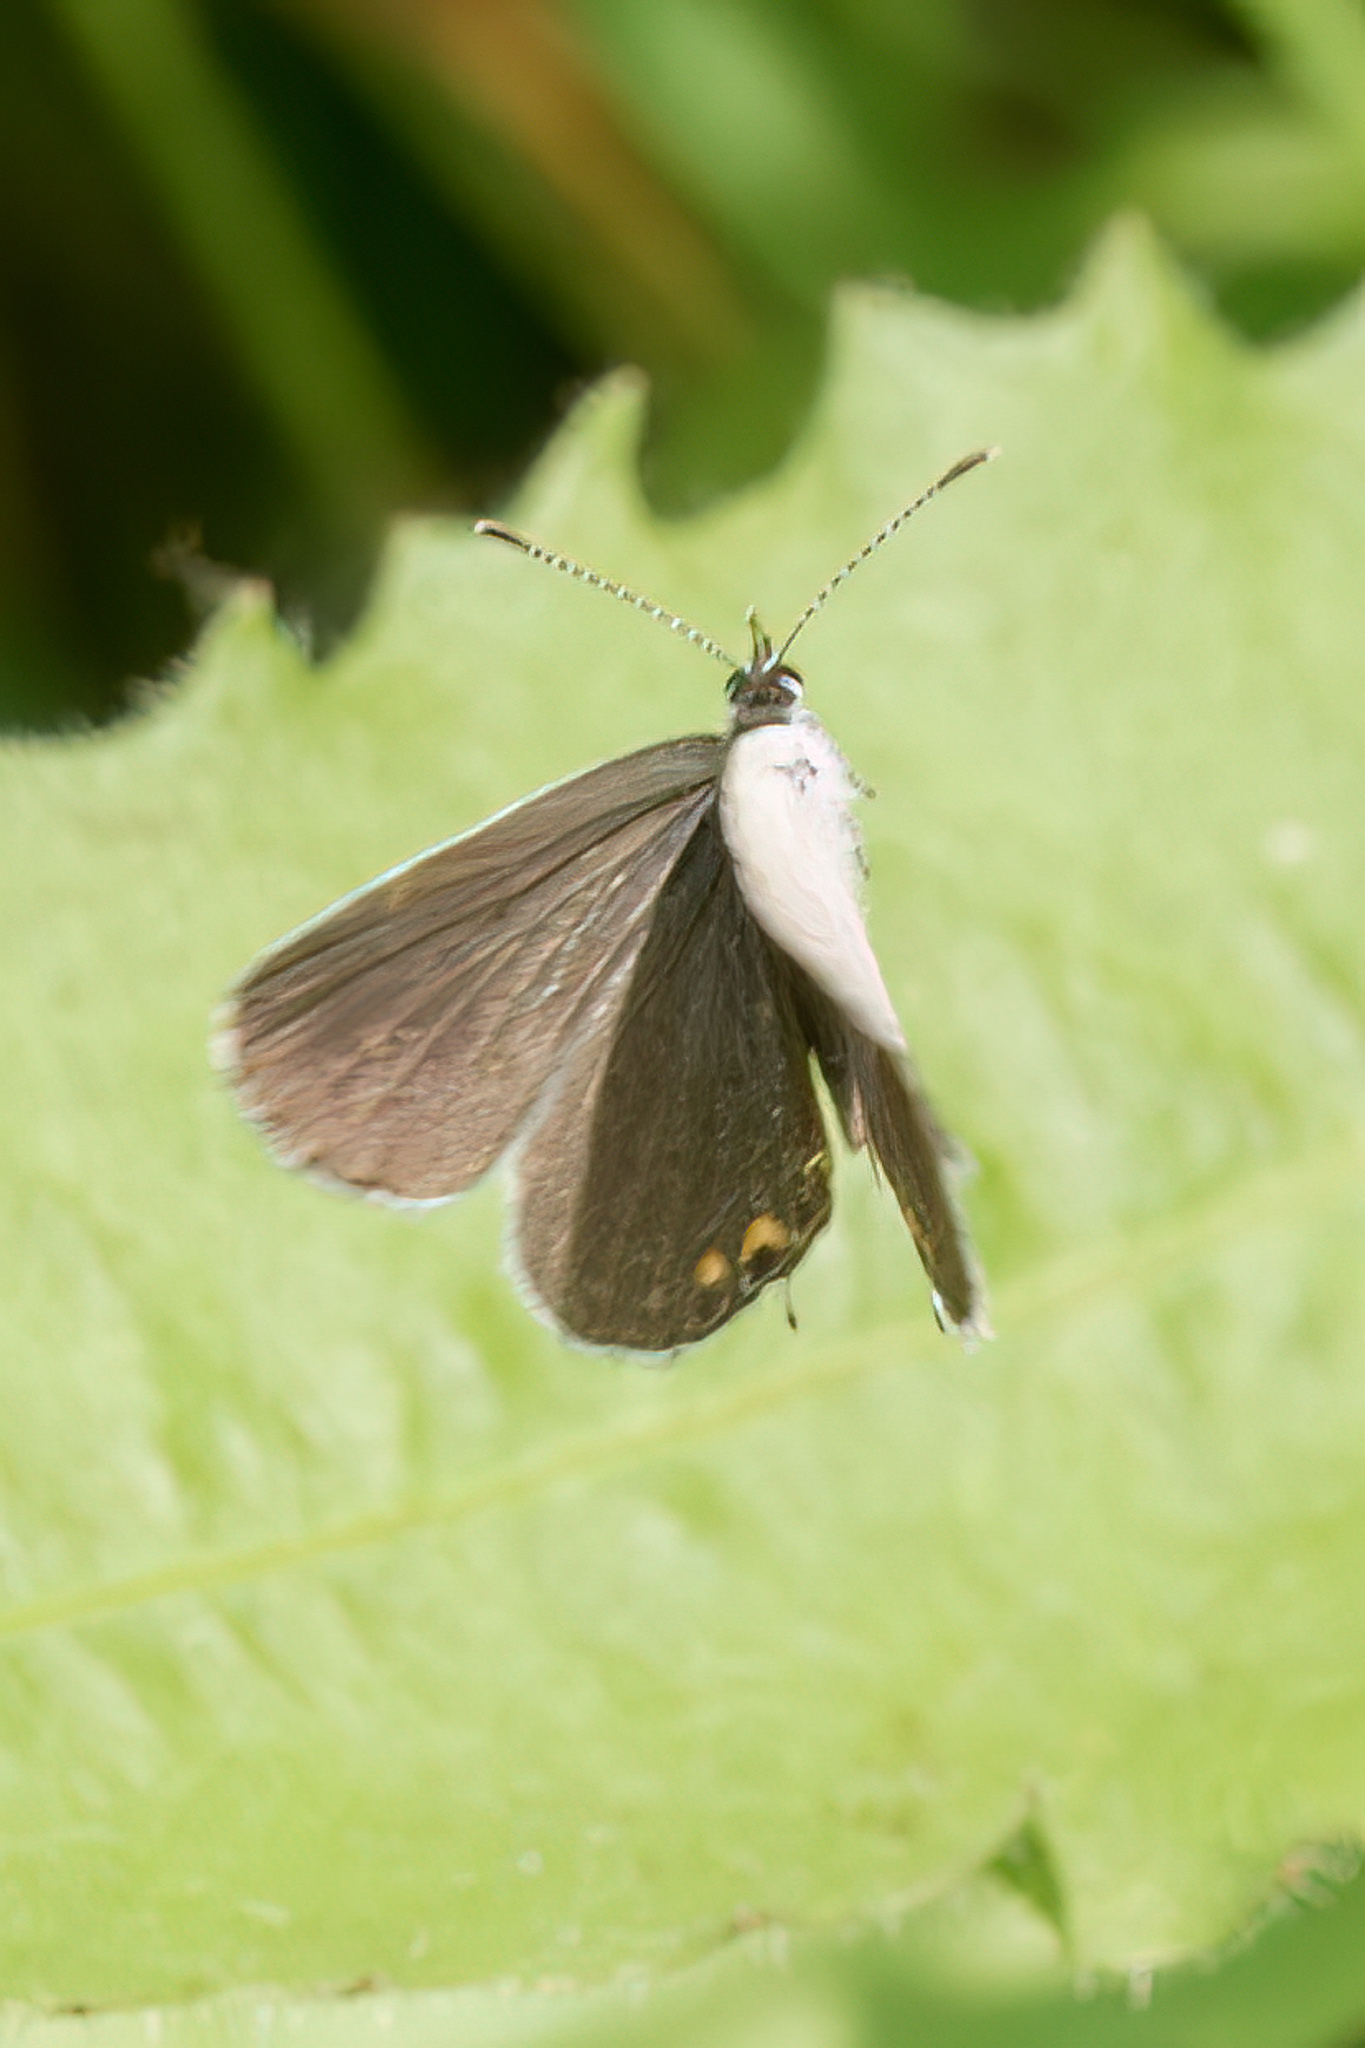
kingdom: Animalia
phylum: Arthropoda
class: Insecta
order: Lepidoptera
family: Lycaenidae
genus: Elkalyce
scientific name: Elkalyce comyntas
